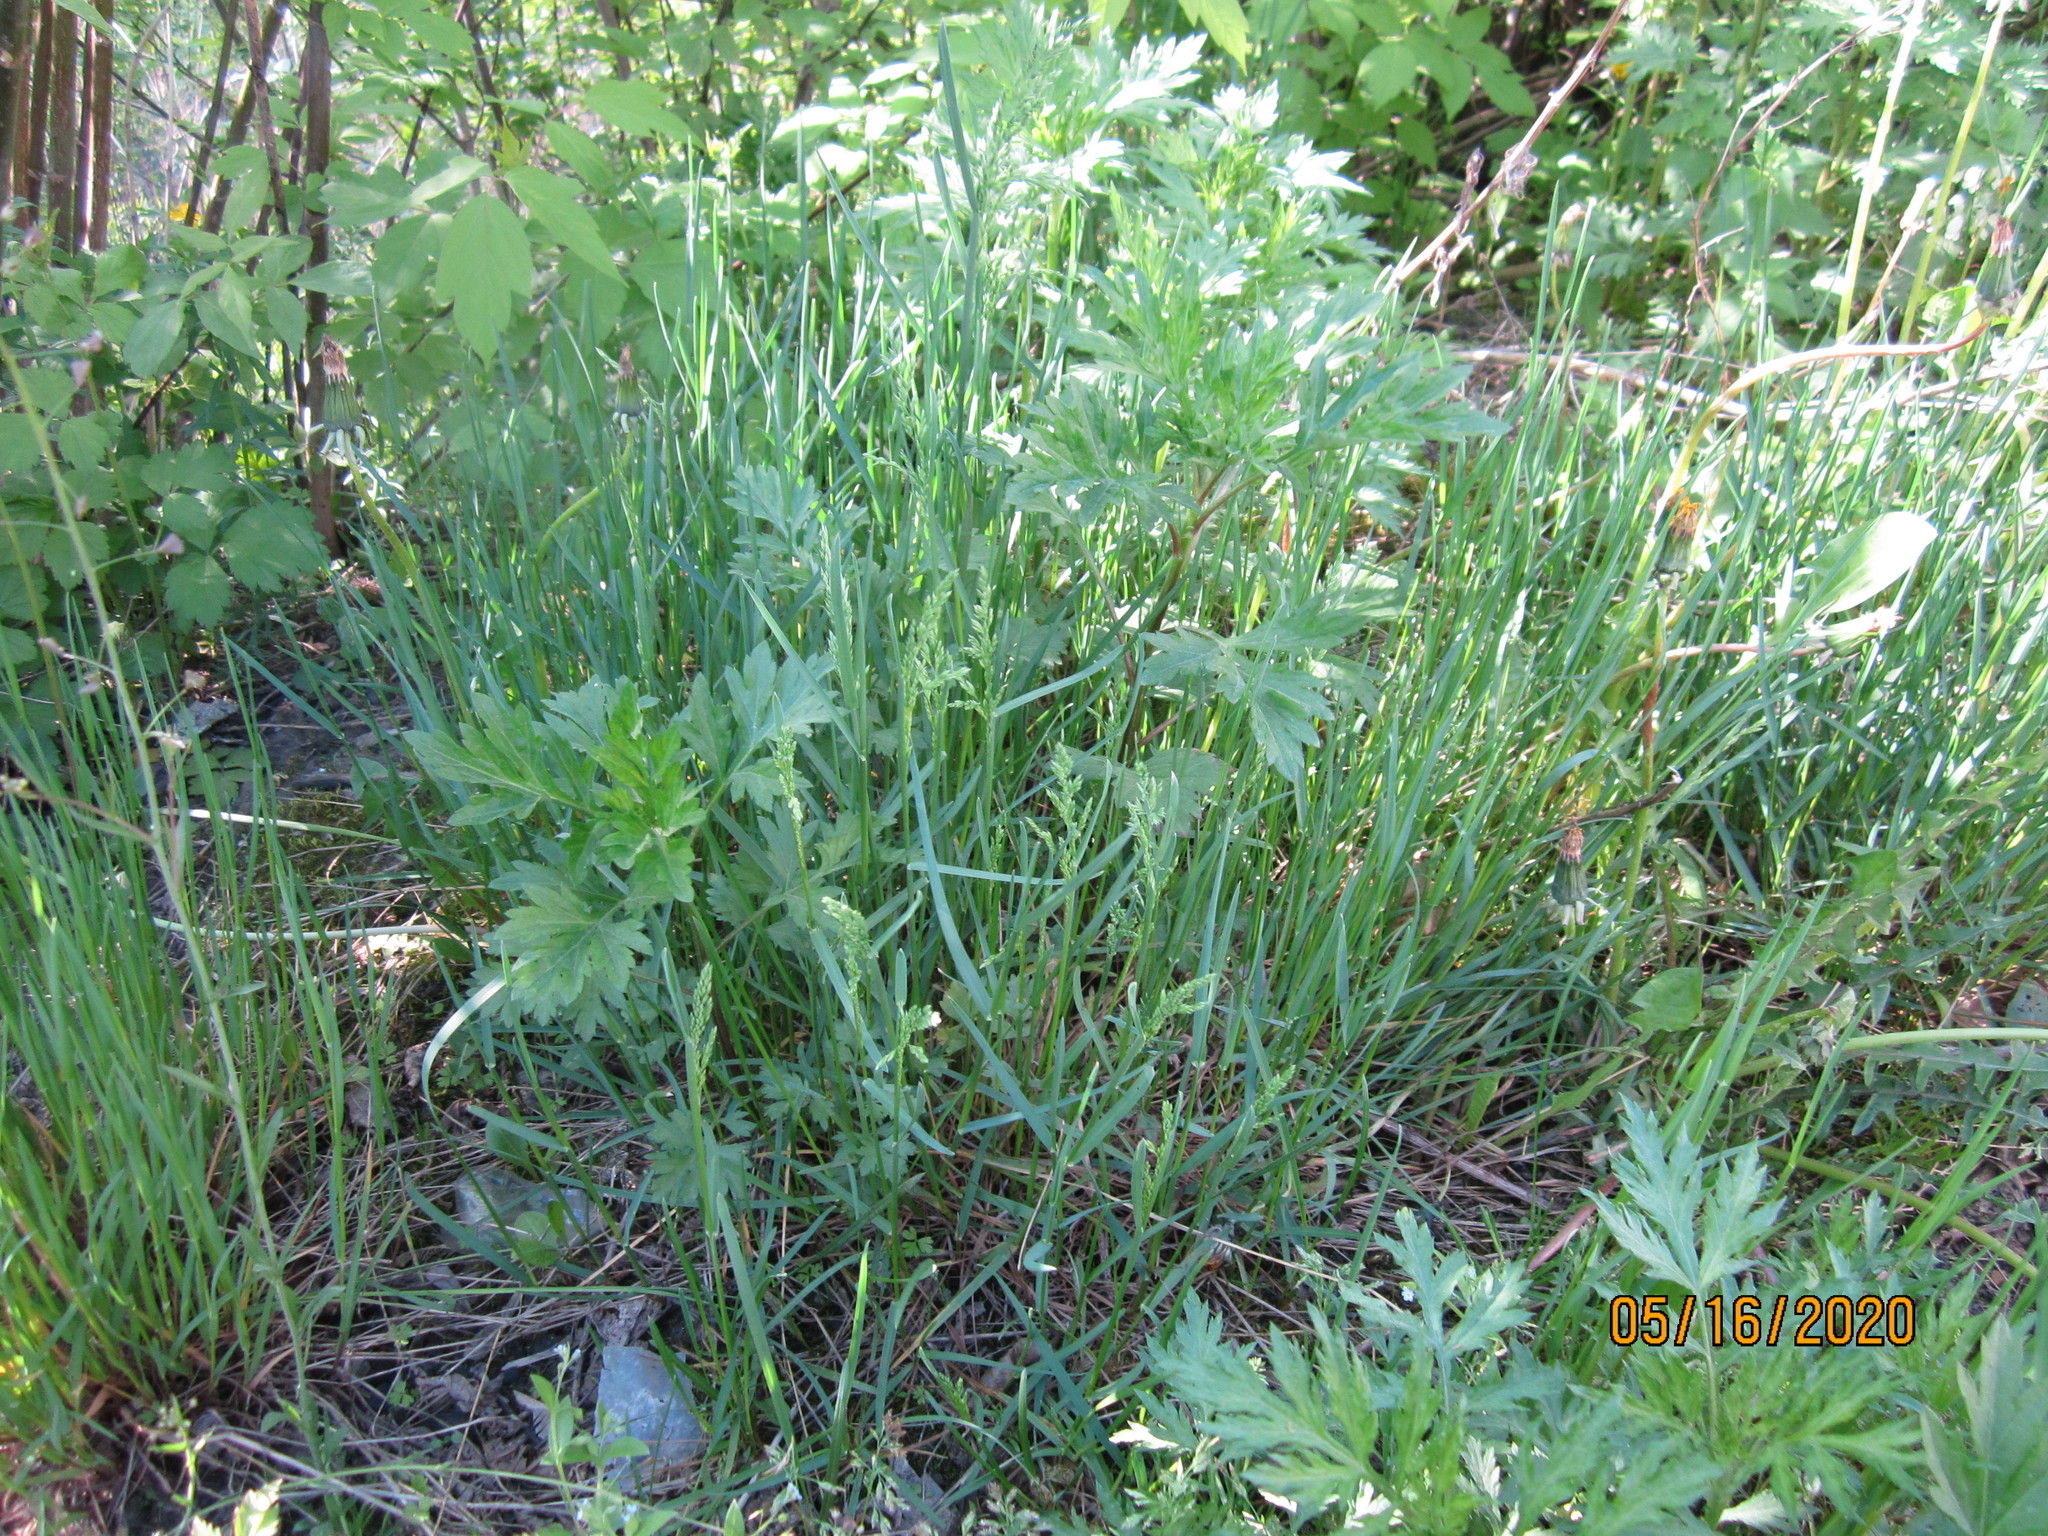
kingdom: Plantae
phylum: Tracheophyta
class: Liliopsida
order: Poales
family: Poaceae
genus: Poa
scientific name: Poa pratensis
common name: Kentucky bluegrass
